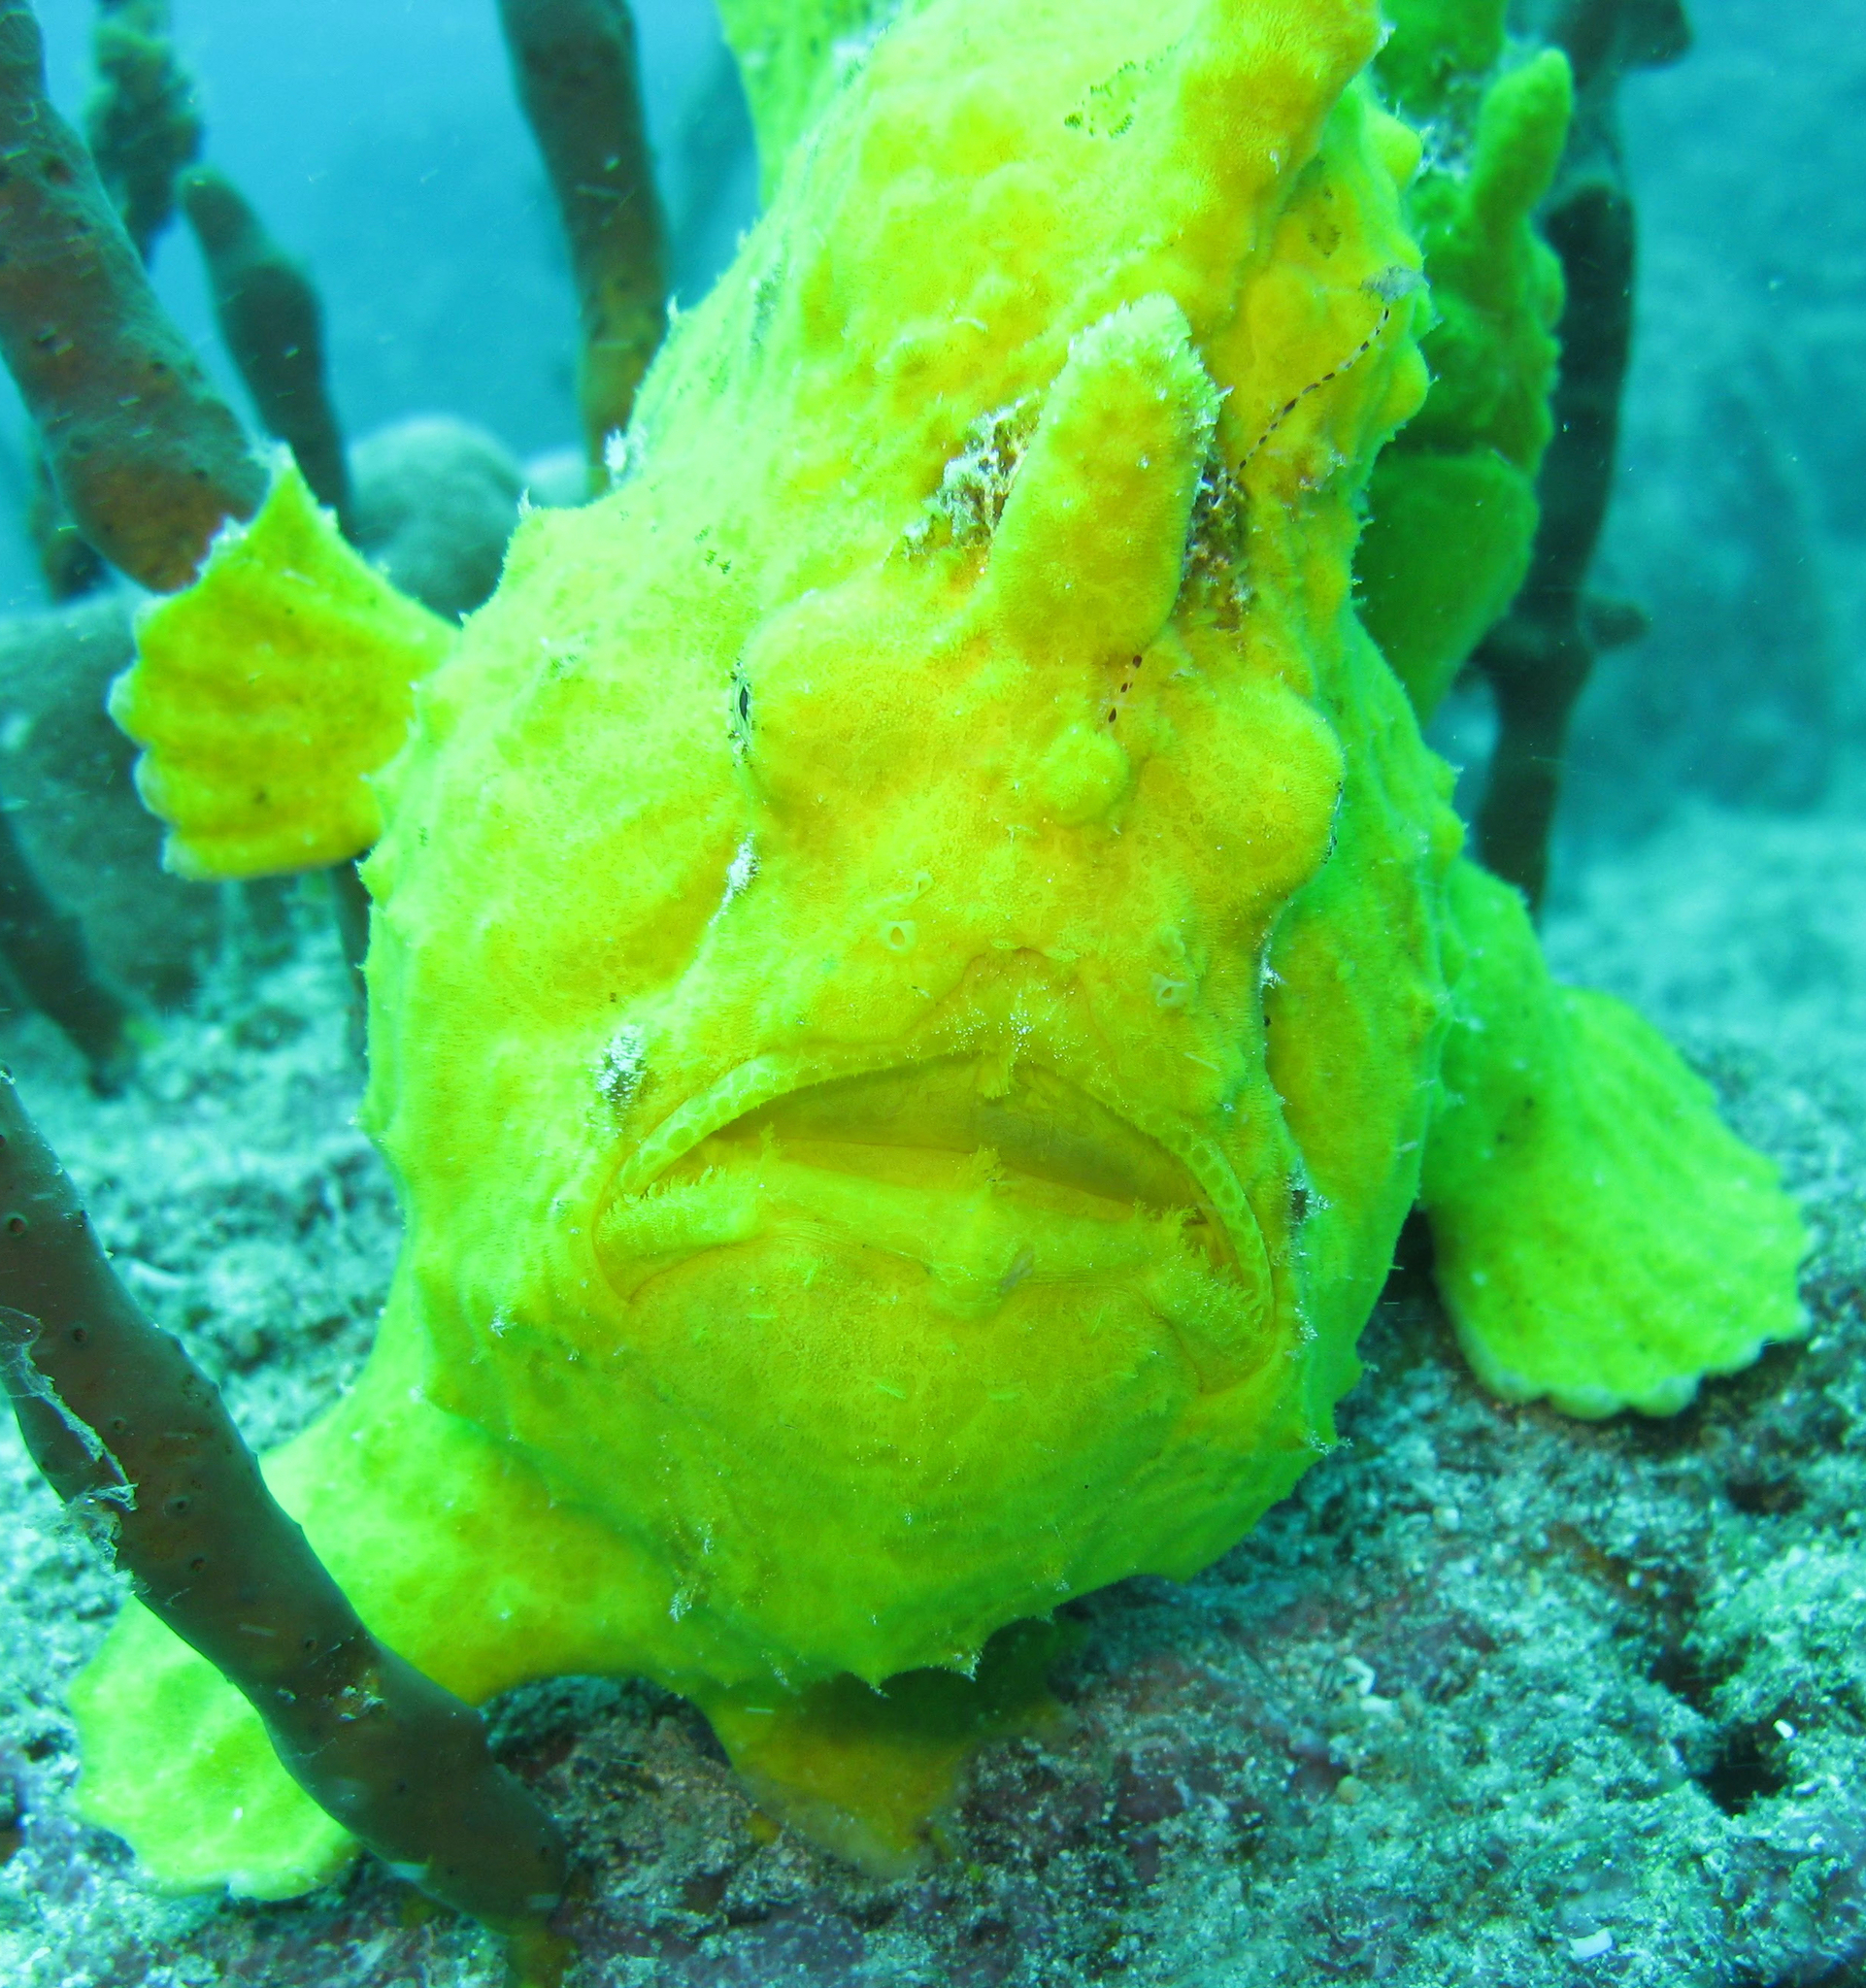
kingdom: Animalia
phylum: Chordata
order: Lophiiformes
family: Antennariidae
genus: Antennarius
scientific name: Antennarius commerson
